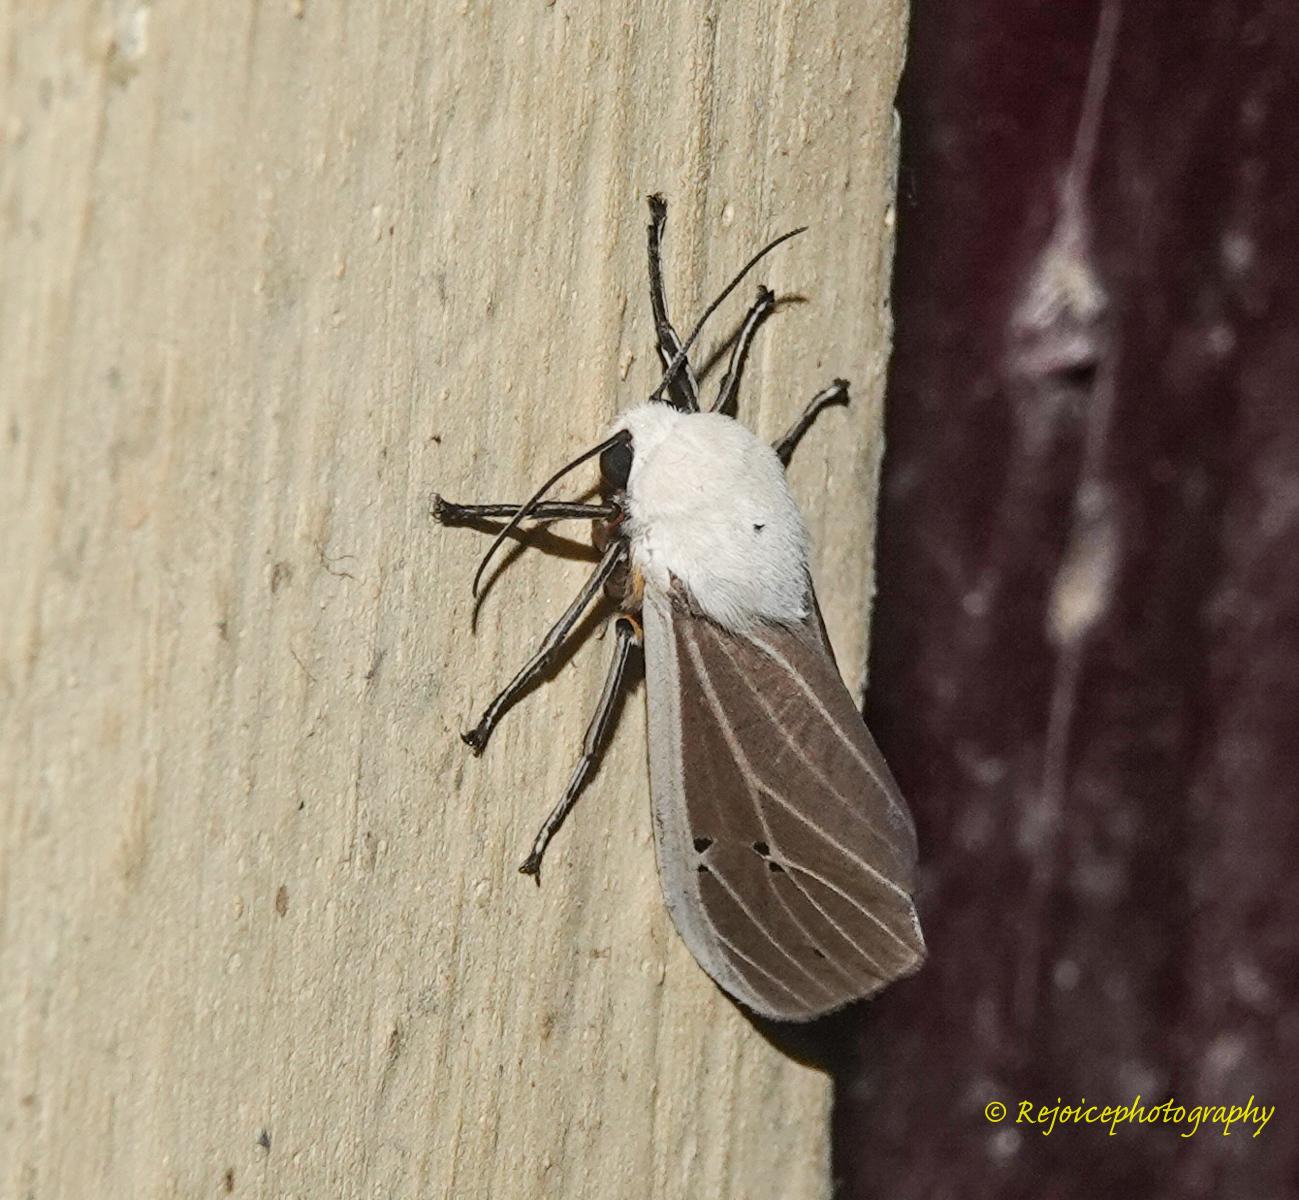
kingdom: Animalia
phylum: Arthropoda
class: Insecta
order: Lepidoptera
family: Erebidae
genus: Creatonotos
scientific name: Creatonotos transiens
